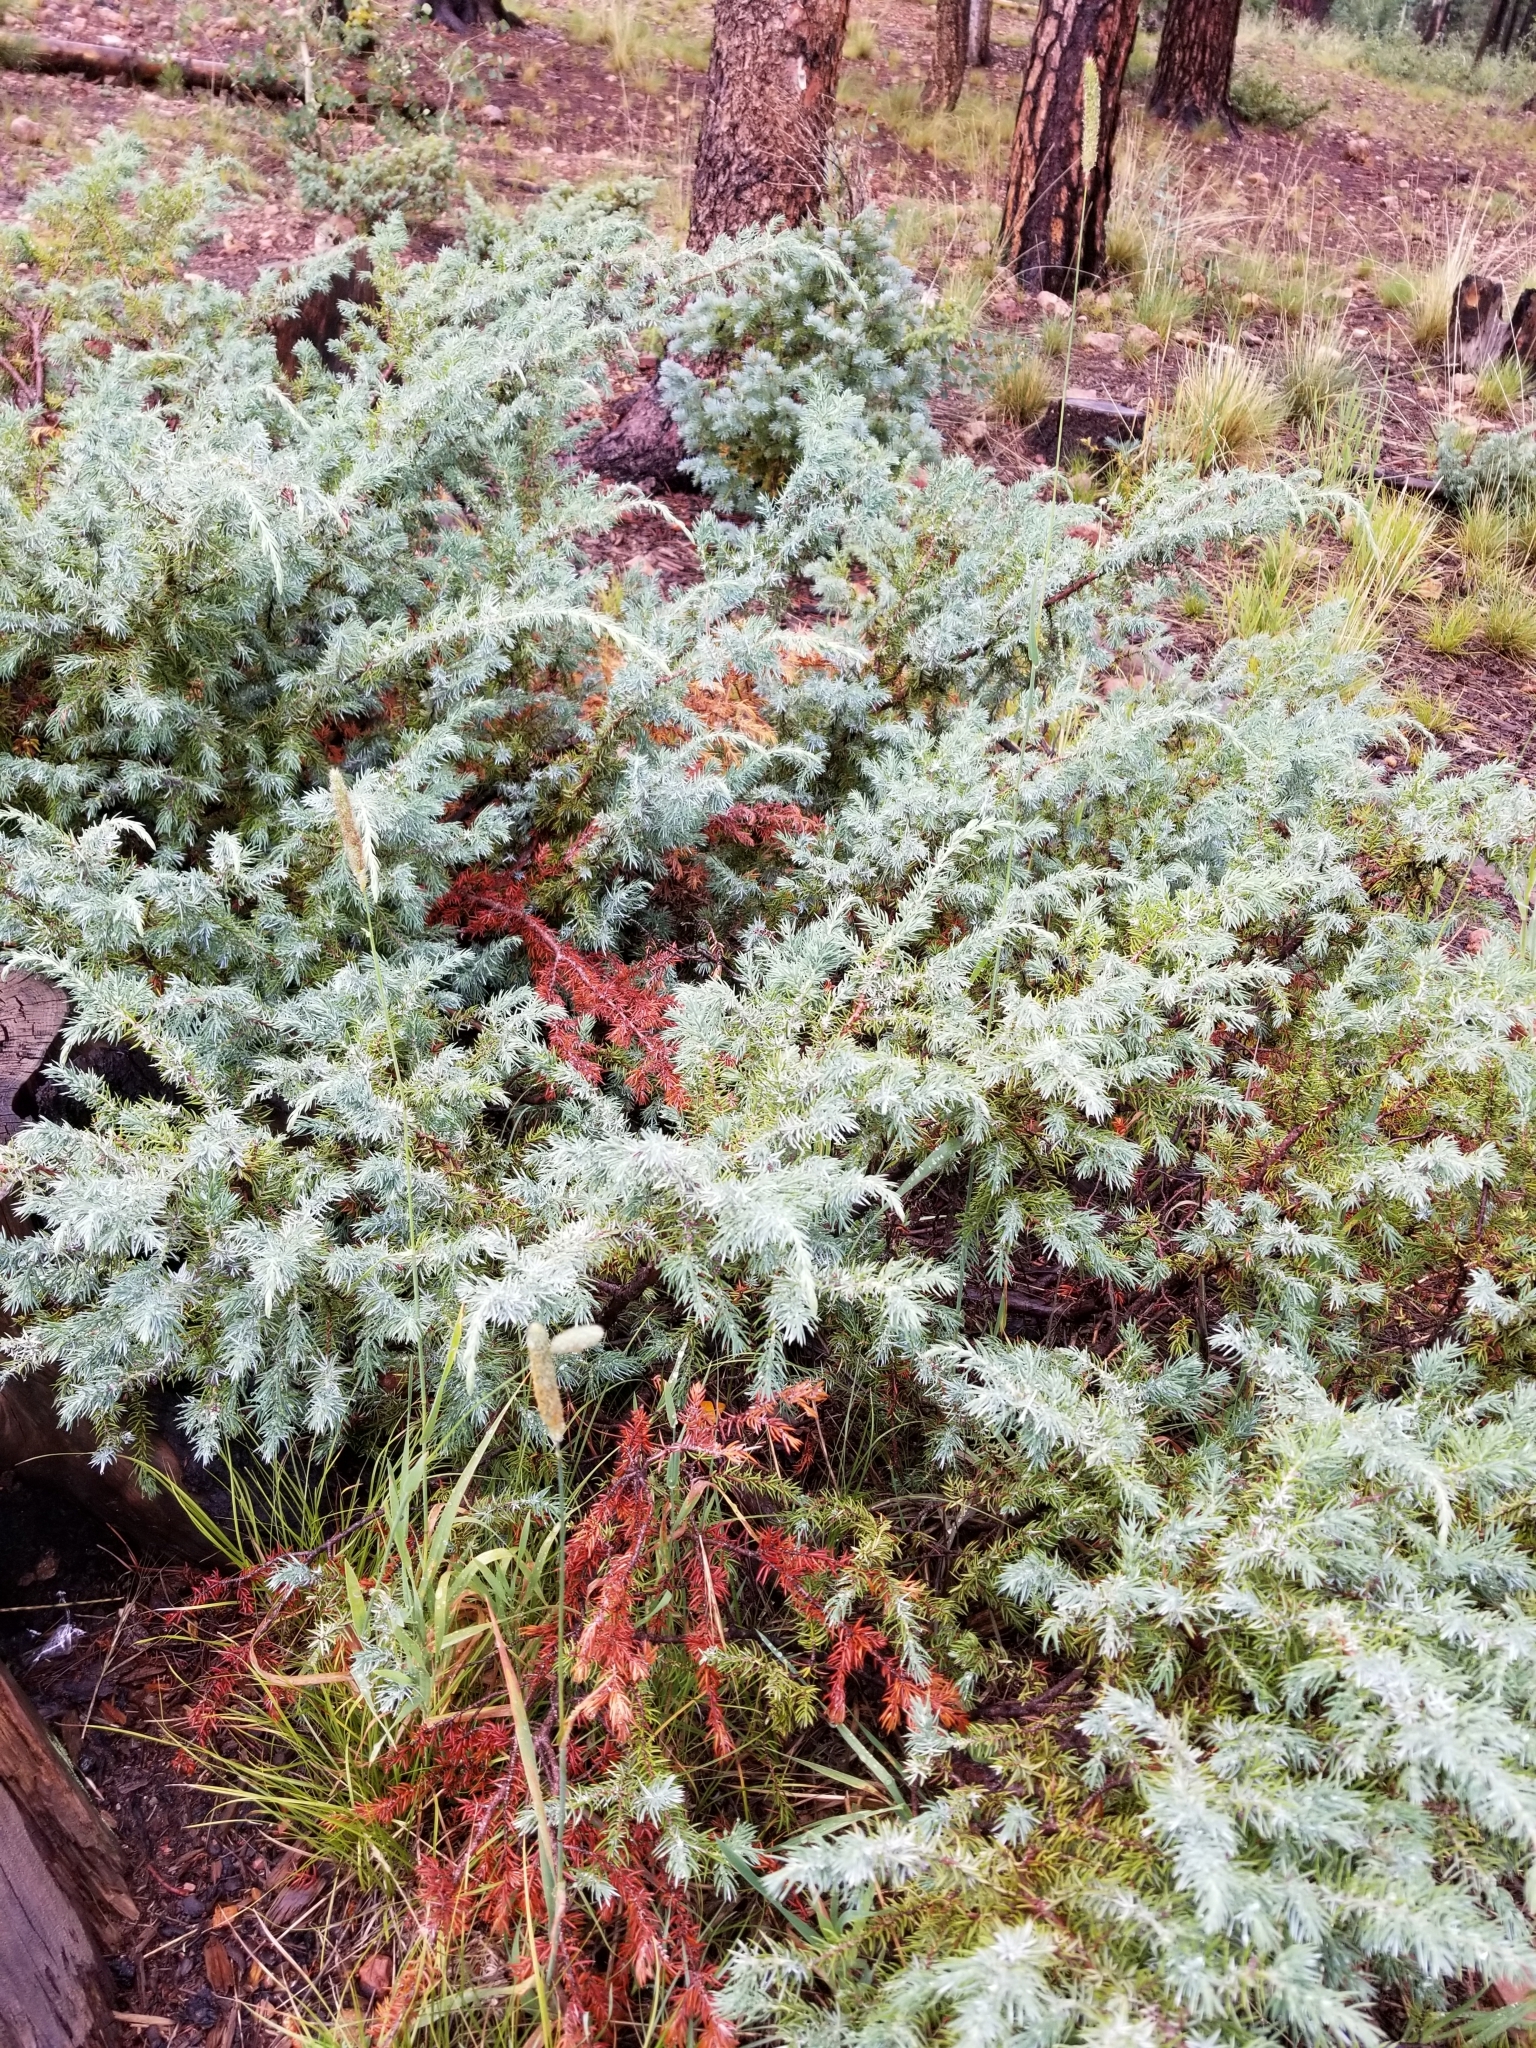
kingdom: Plantae
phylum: Tracheophyta
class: Pinopsida
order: Pinales
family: Cupressaceae
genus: Juniperus
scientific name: Juniperus communis
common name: Common juniper
